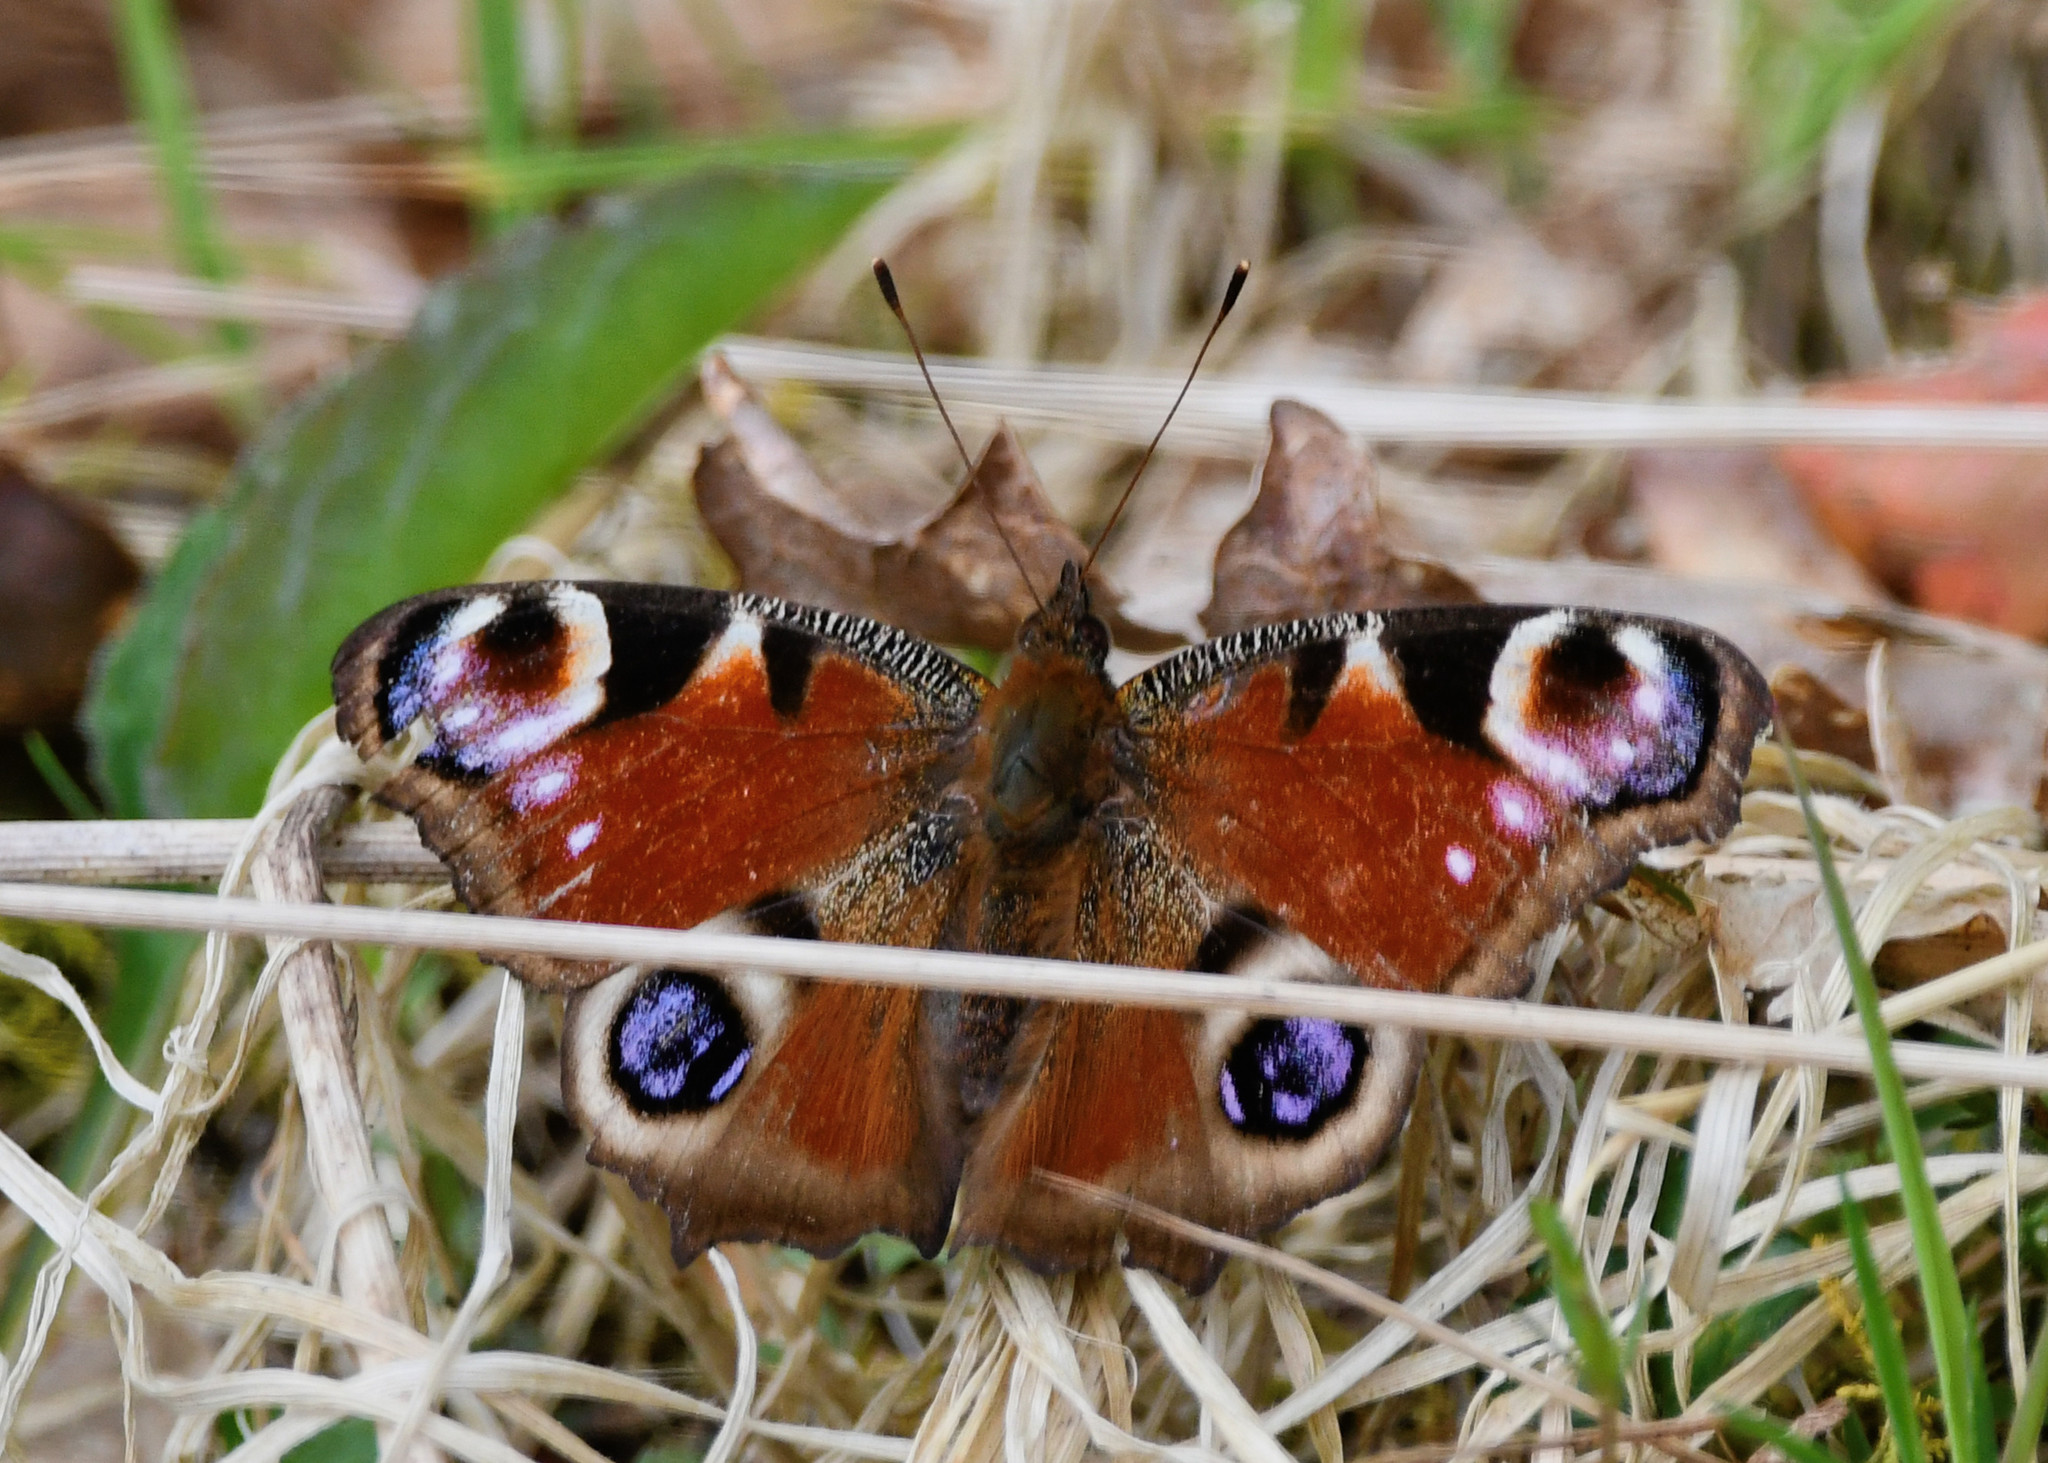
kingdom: Animalia
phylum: Arthropoda
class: Insecta
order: Lepidoptera
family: Nymphalidae
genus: Aglais
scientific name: Aglais io
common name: Peacock
